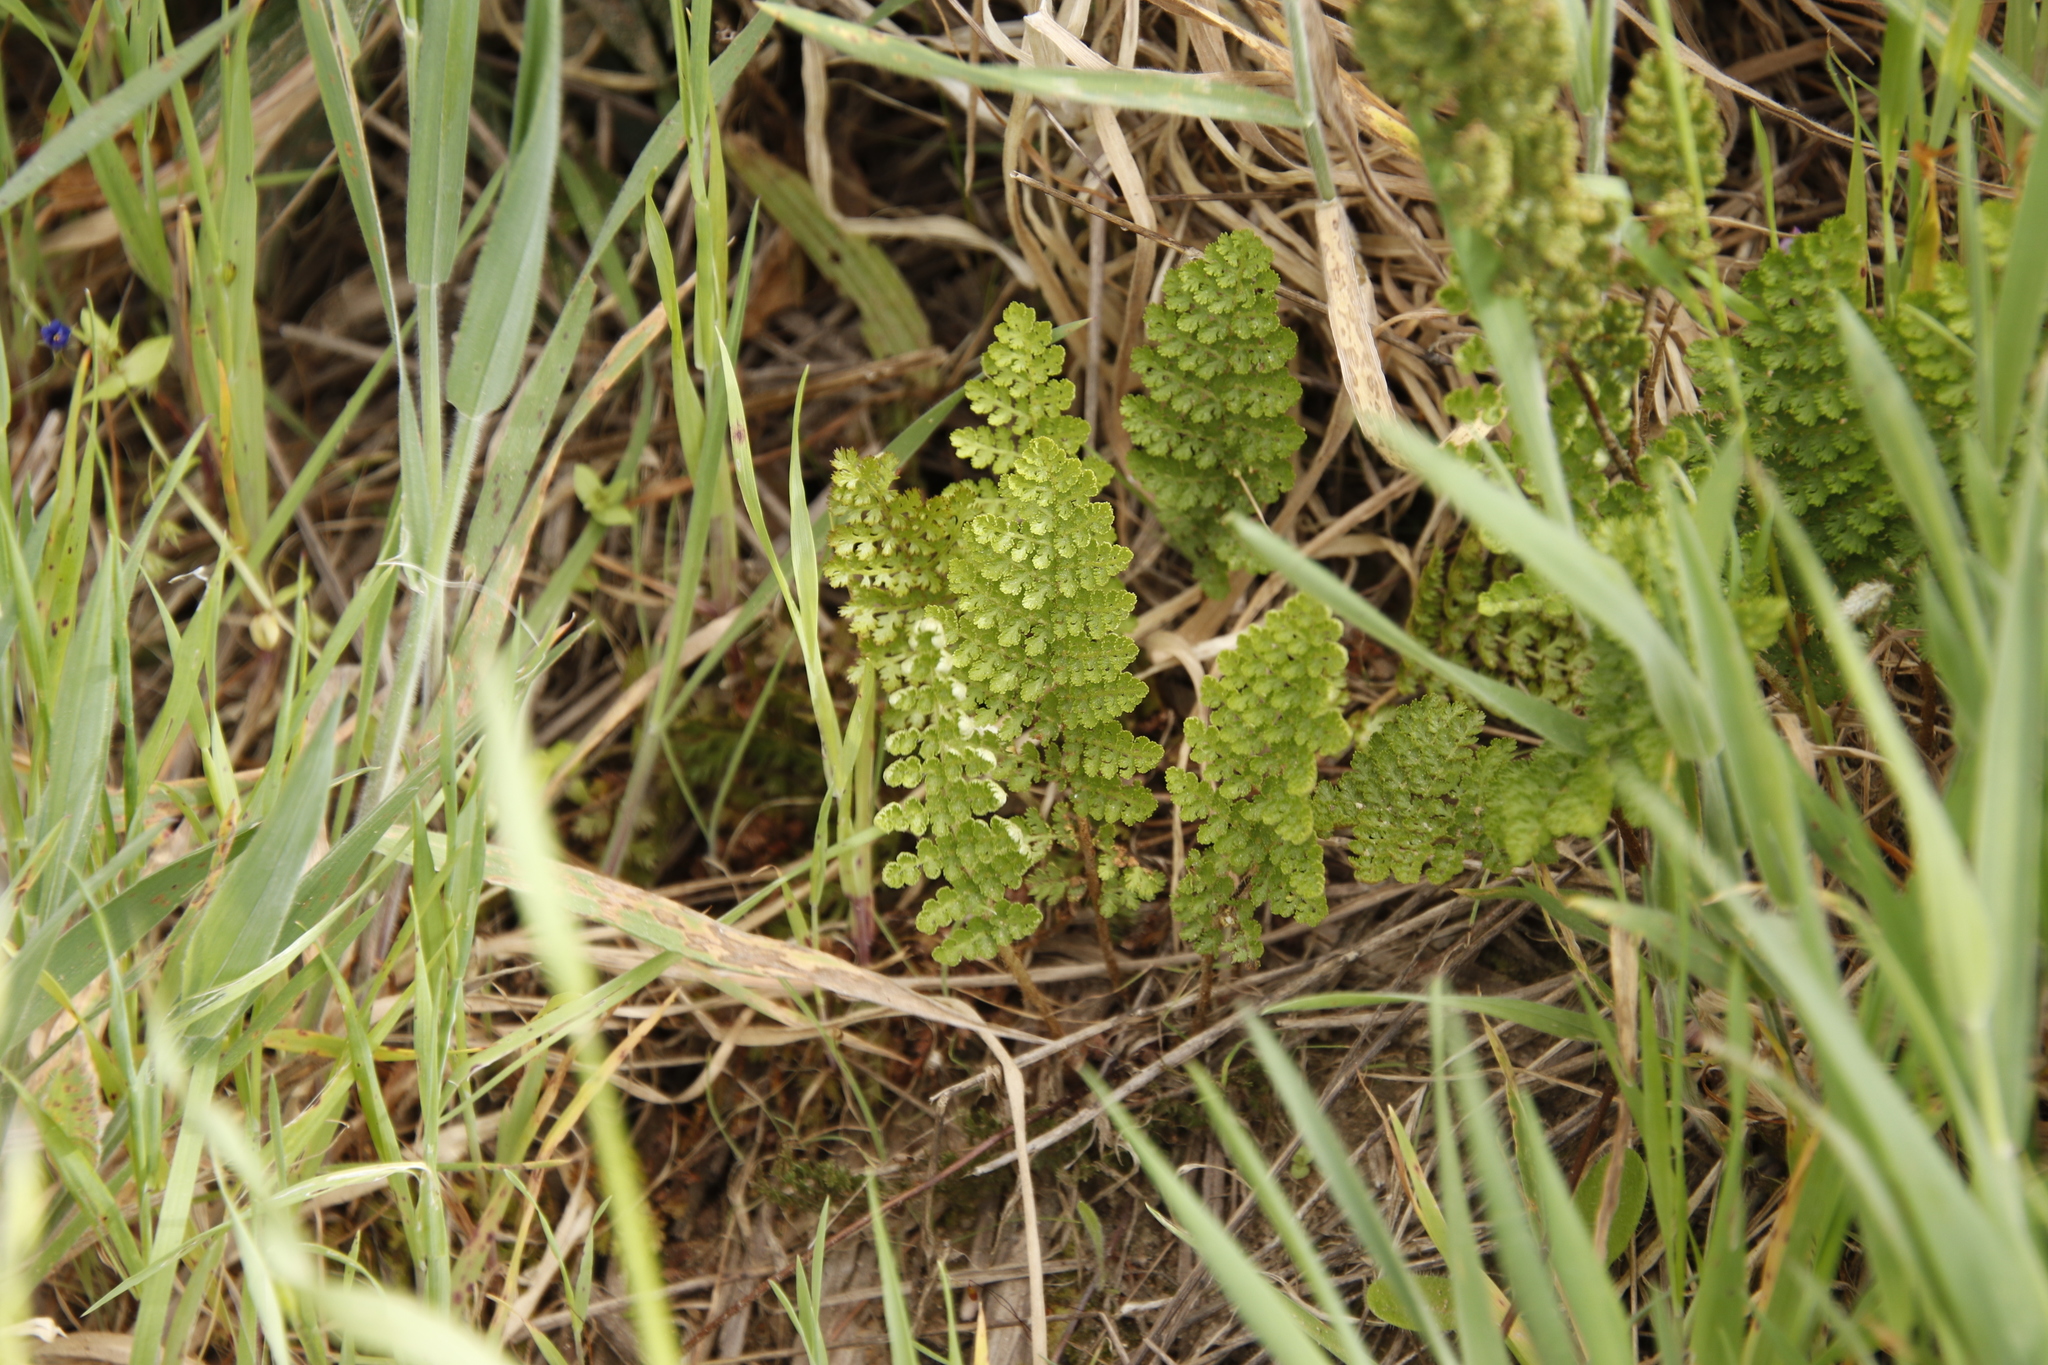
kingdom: Plantae
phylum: Tracheophyta
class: Polypodiopsida
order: Schizaeales
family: Anemiaceae
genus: Anemia
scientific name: Anemia caffrorum
